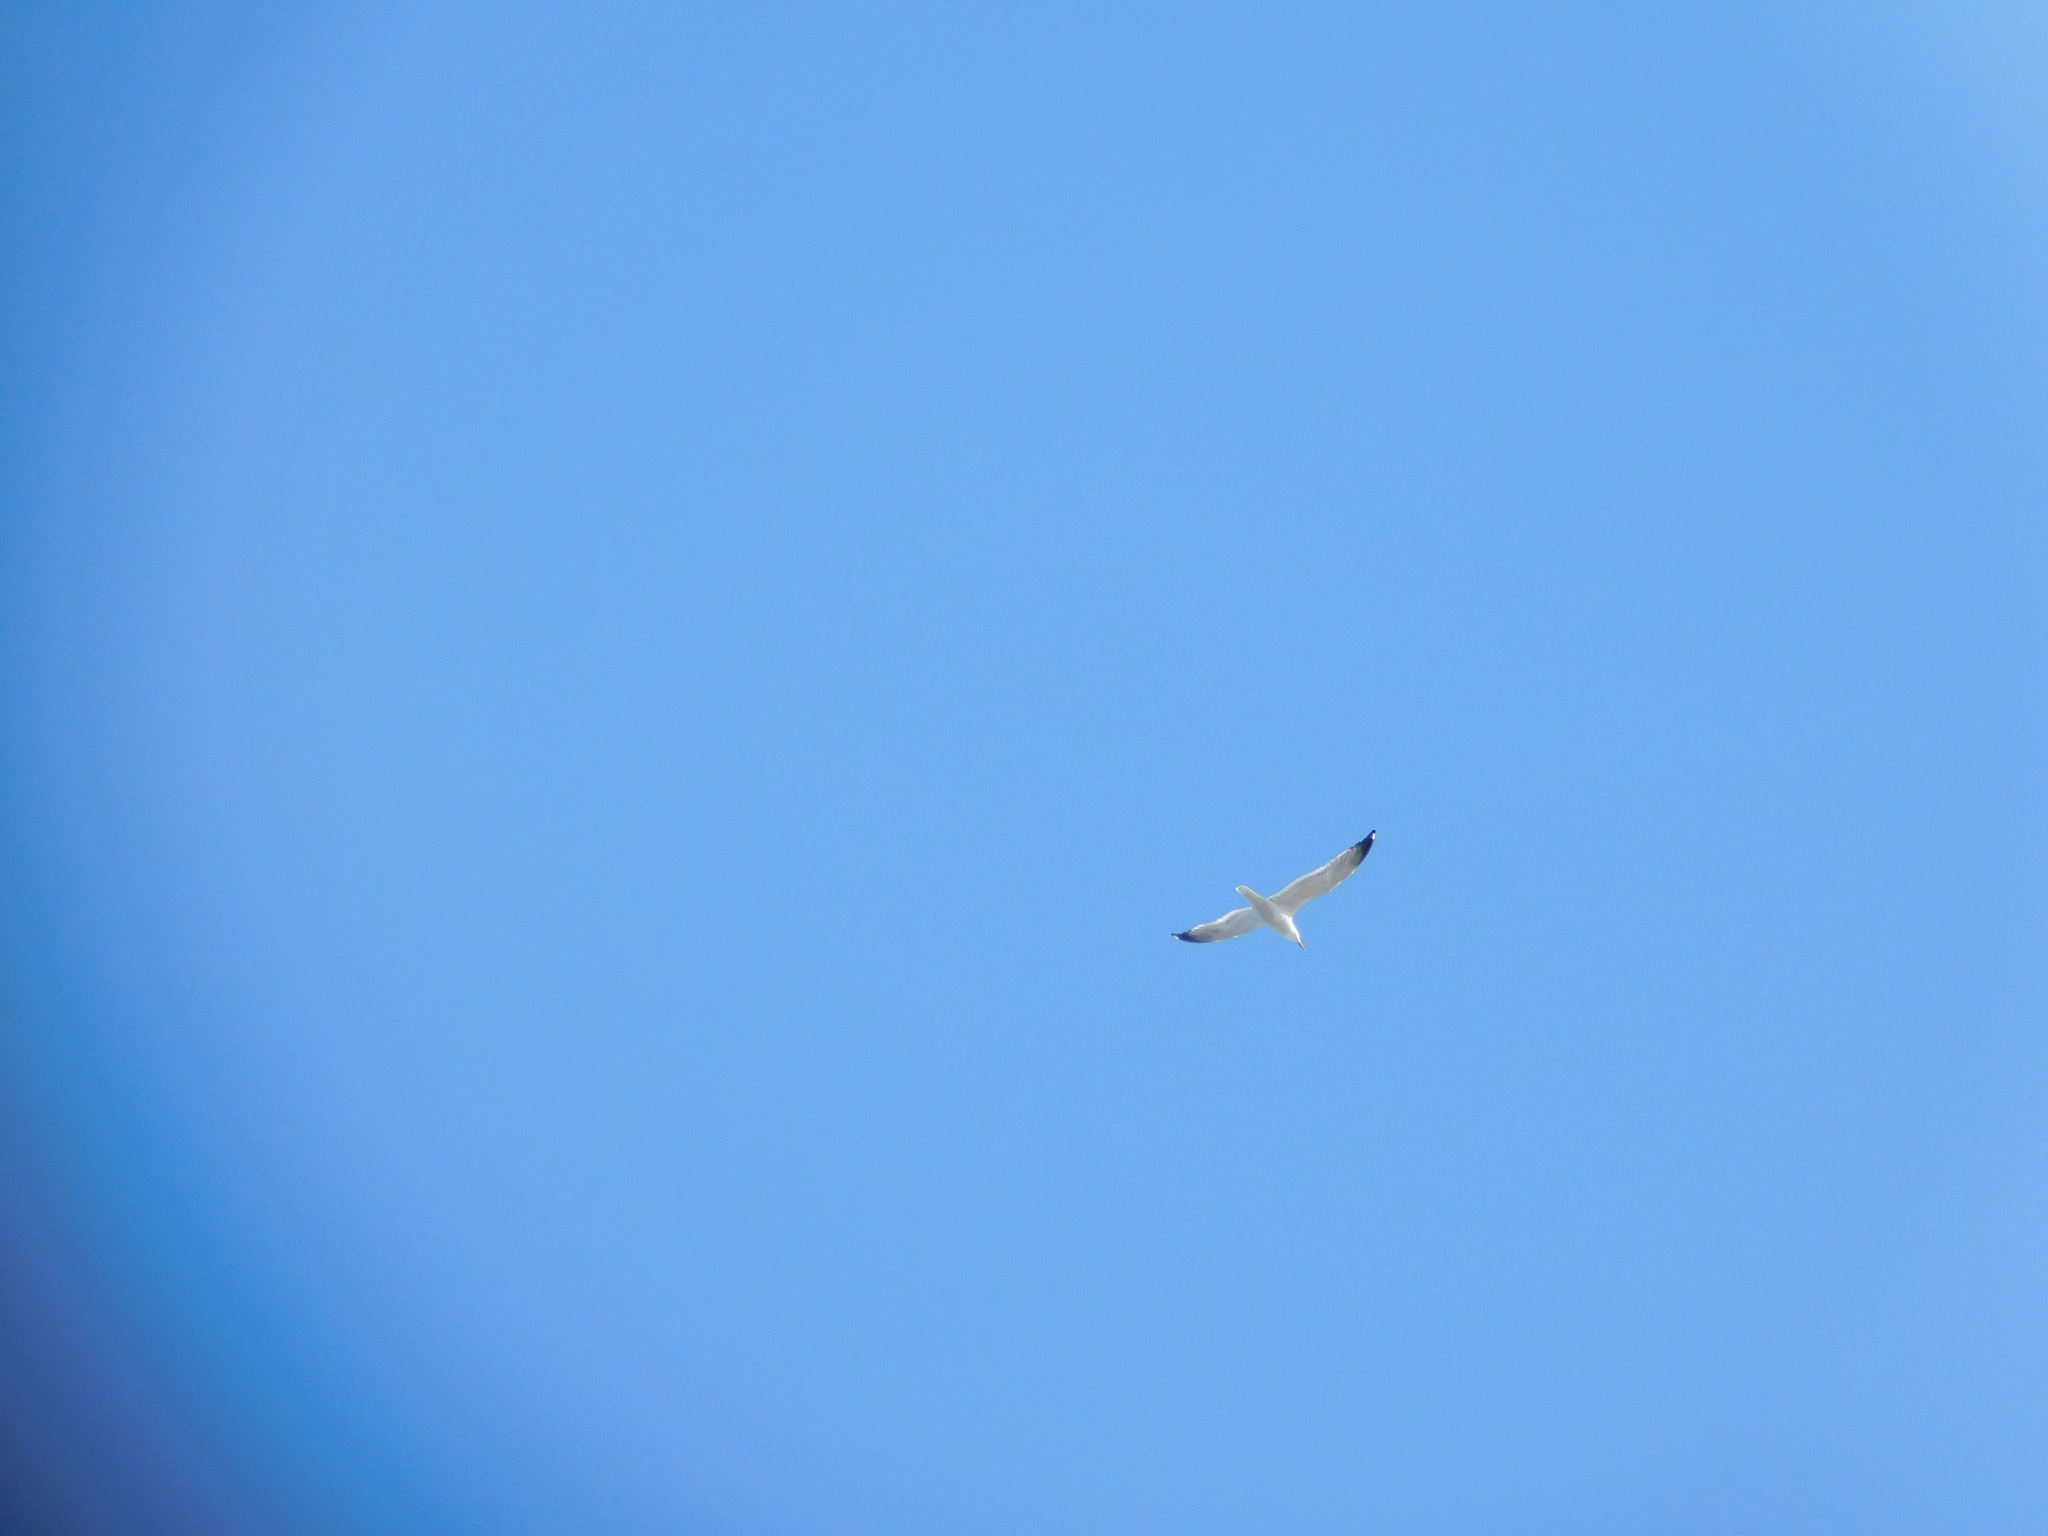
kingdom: Animalia
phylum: Chordata
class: Aves
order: Charadriiformes
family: Laridae
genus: Larus
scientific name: Larus fuscus
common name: Lesser black-backed gull
